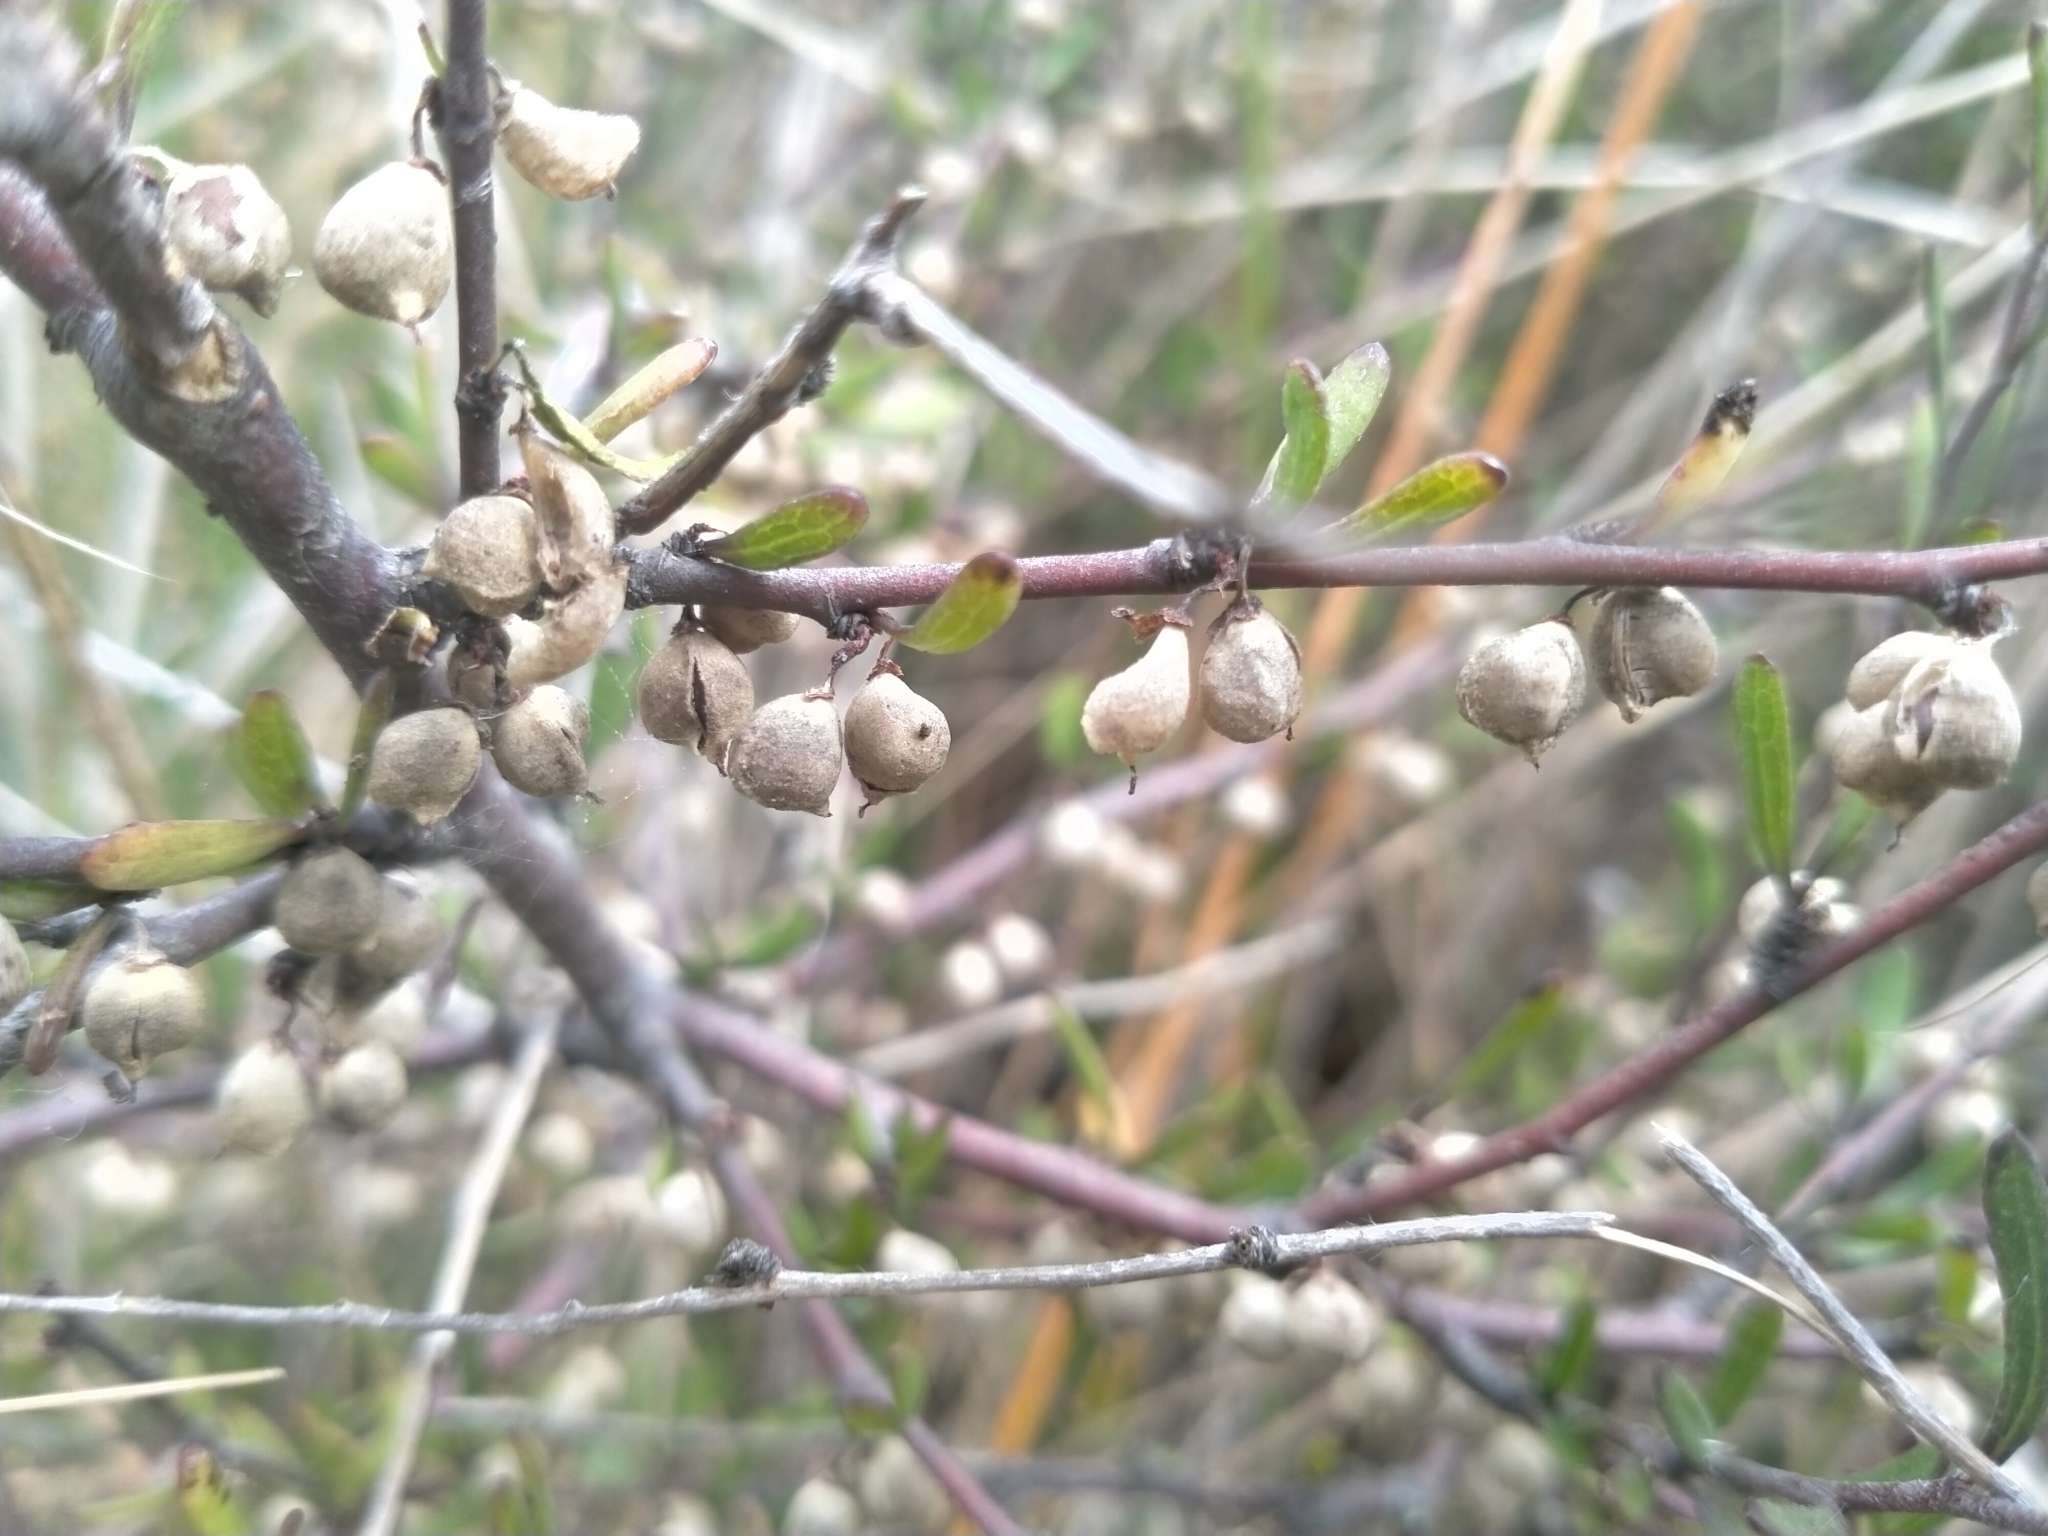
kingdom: Plantae
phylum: Tracheophyta
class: Magnoliopsida
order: Malvales
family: Malvaceae
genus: Plagianthus
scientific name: Plagianthus divaricatus
